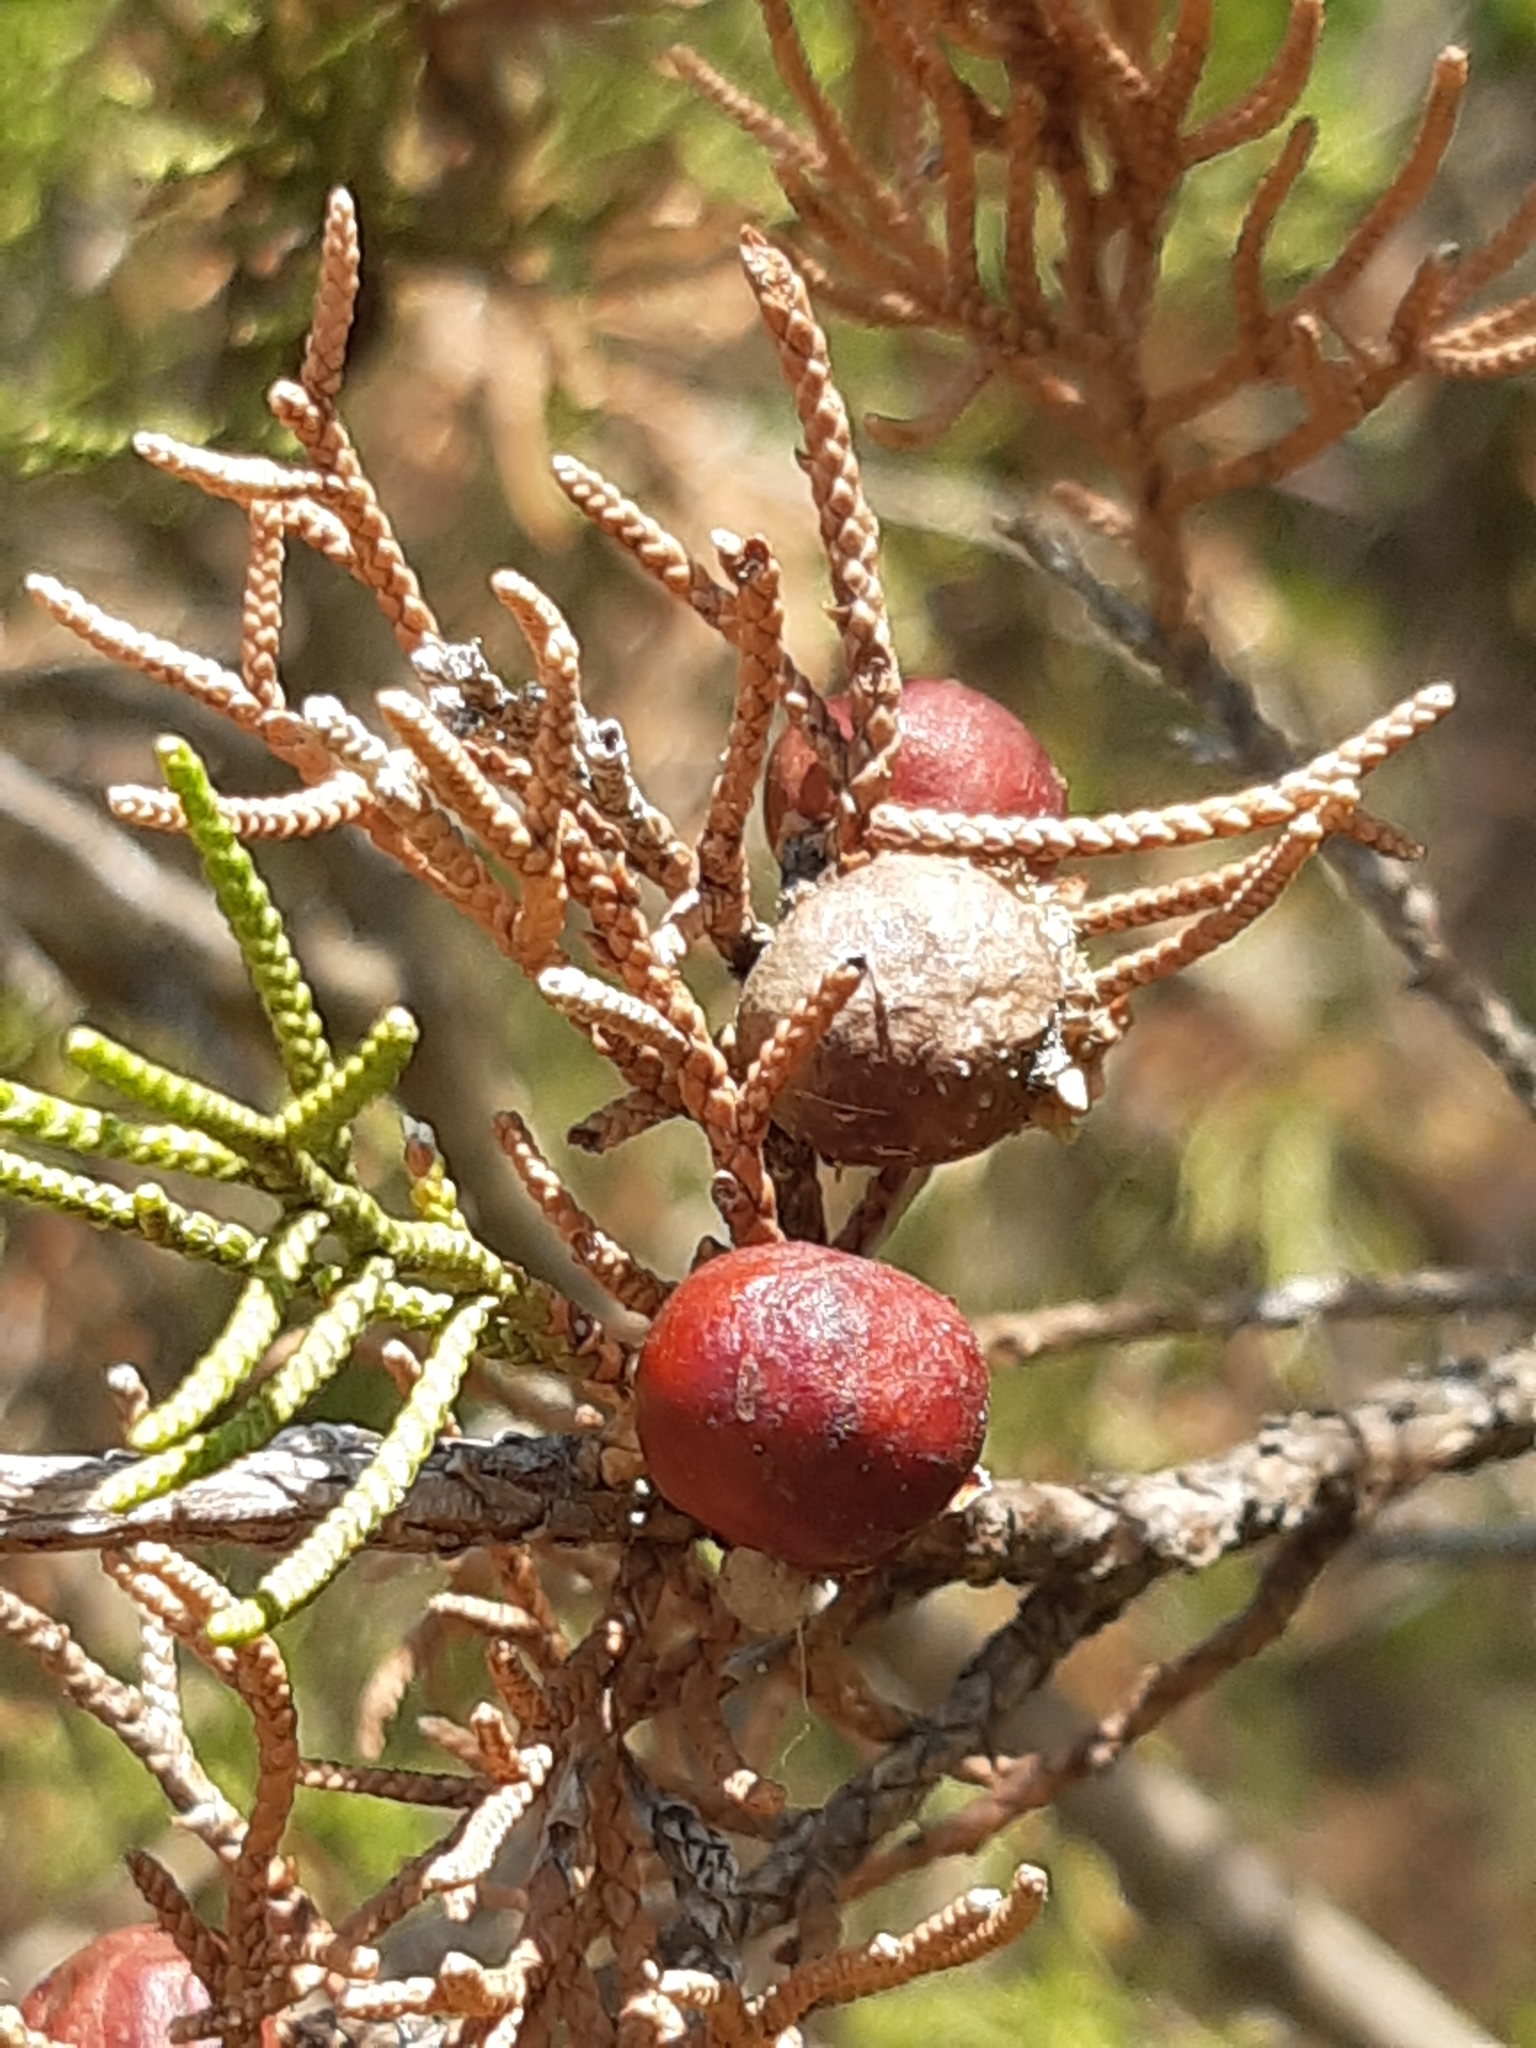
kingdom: Plantae
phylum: Tracheophyta
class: Pinopsida
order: Pinales
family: Cupressaceae
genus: Juniperus
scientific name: Juniperus phoenicea
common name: Phoenician juniper
